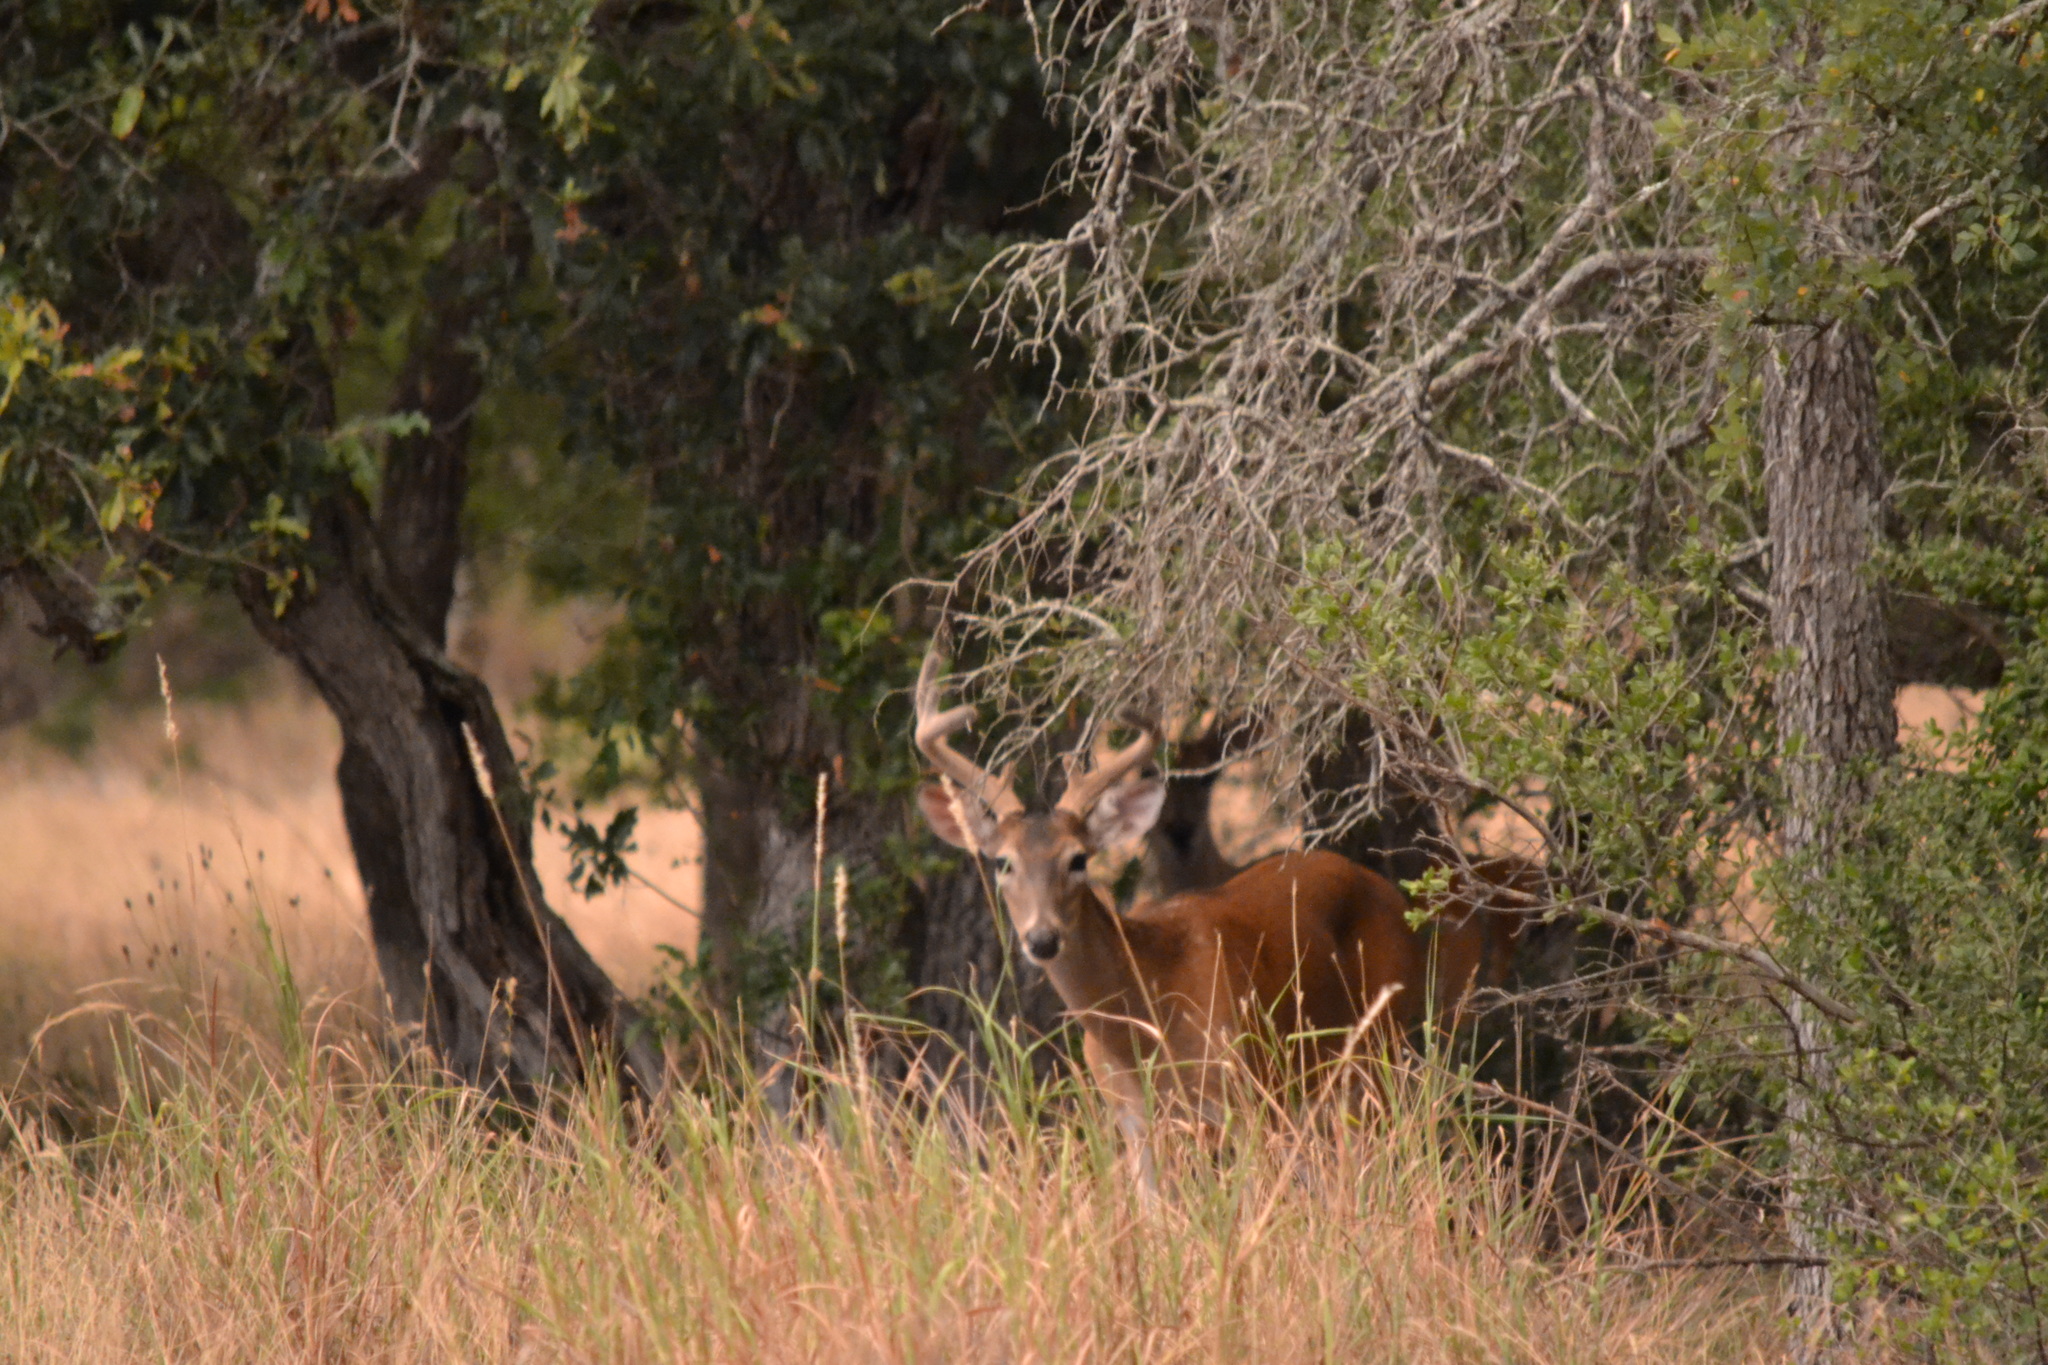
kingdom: Animalia
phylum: Chordata
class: Mammalia
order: Artiodactyla
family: Cervidae
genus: Odocoileus
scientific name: Odocoileus virginianus
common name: White-tailed deer
